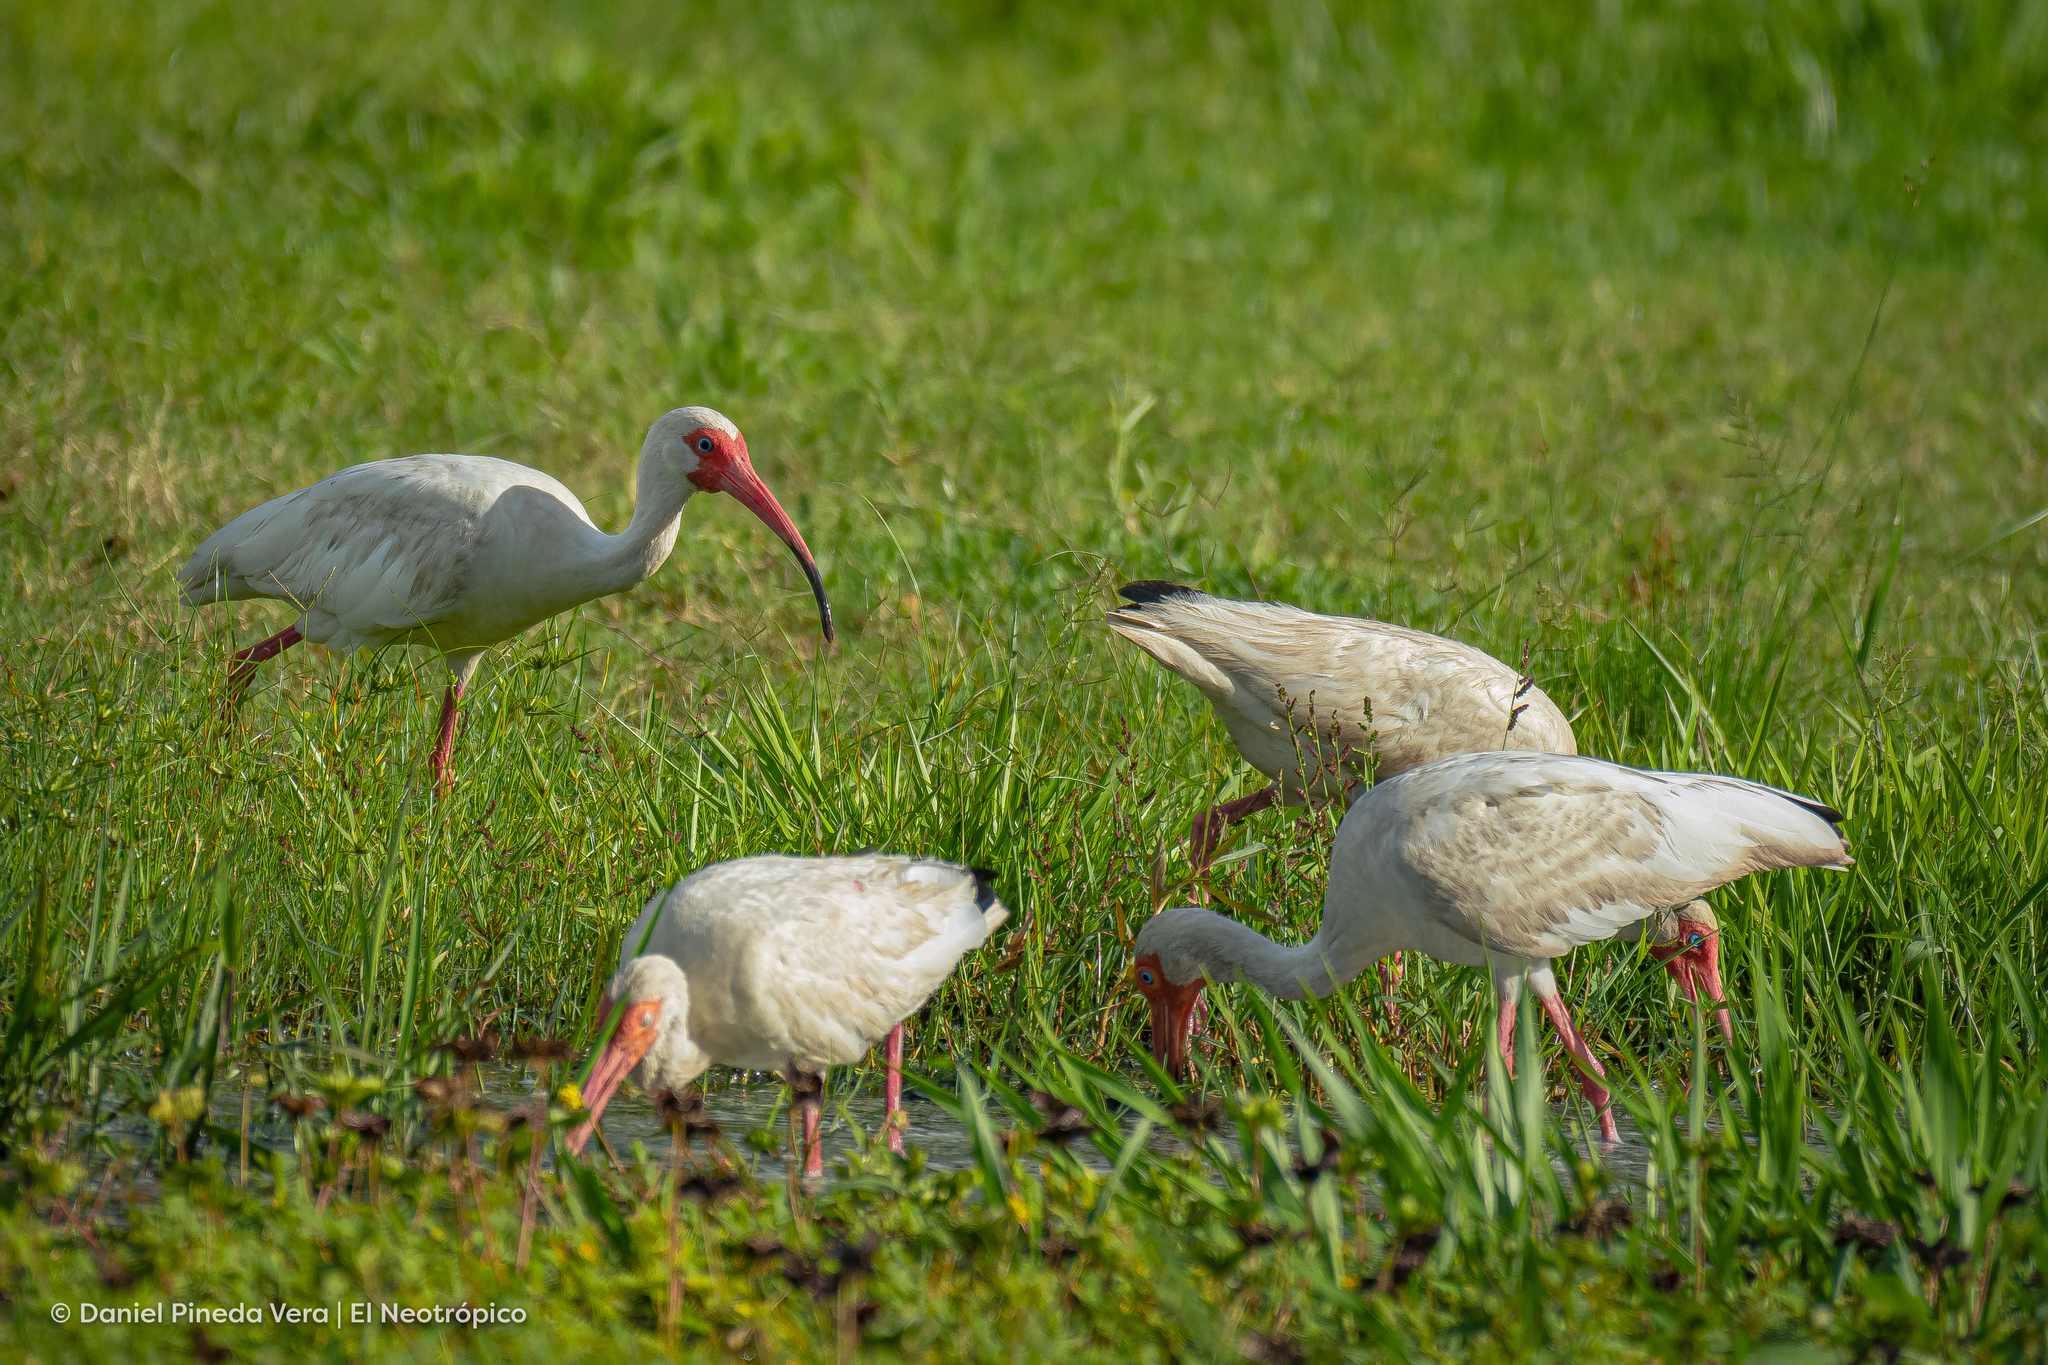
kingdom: Animalia
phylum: Chordata
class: Aves
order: Pelecaniformes
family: Threskiornithidae
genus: Eudocimus
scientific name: Eudocimus albus
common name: White ibis
